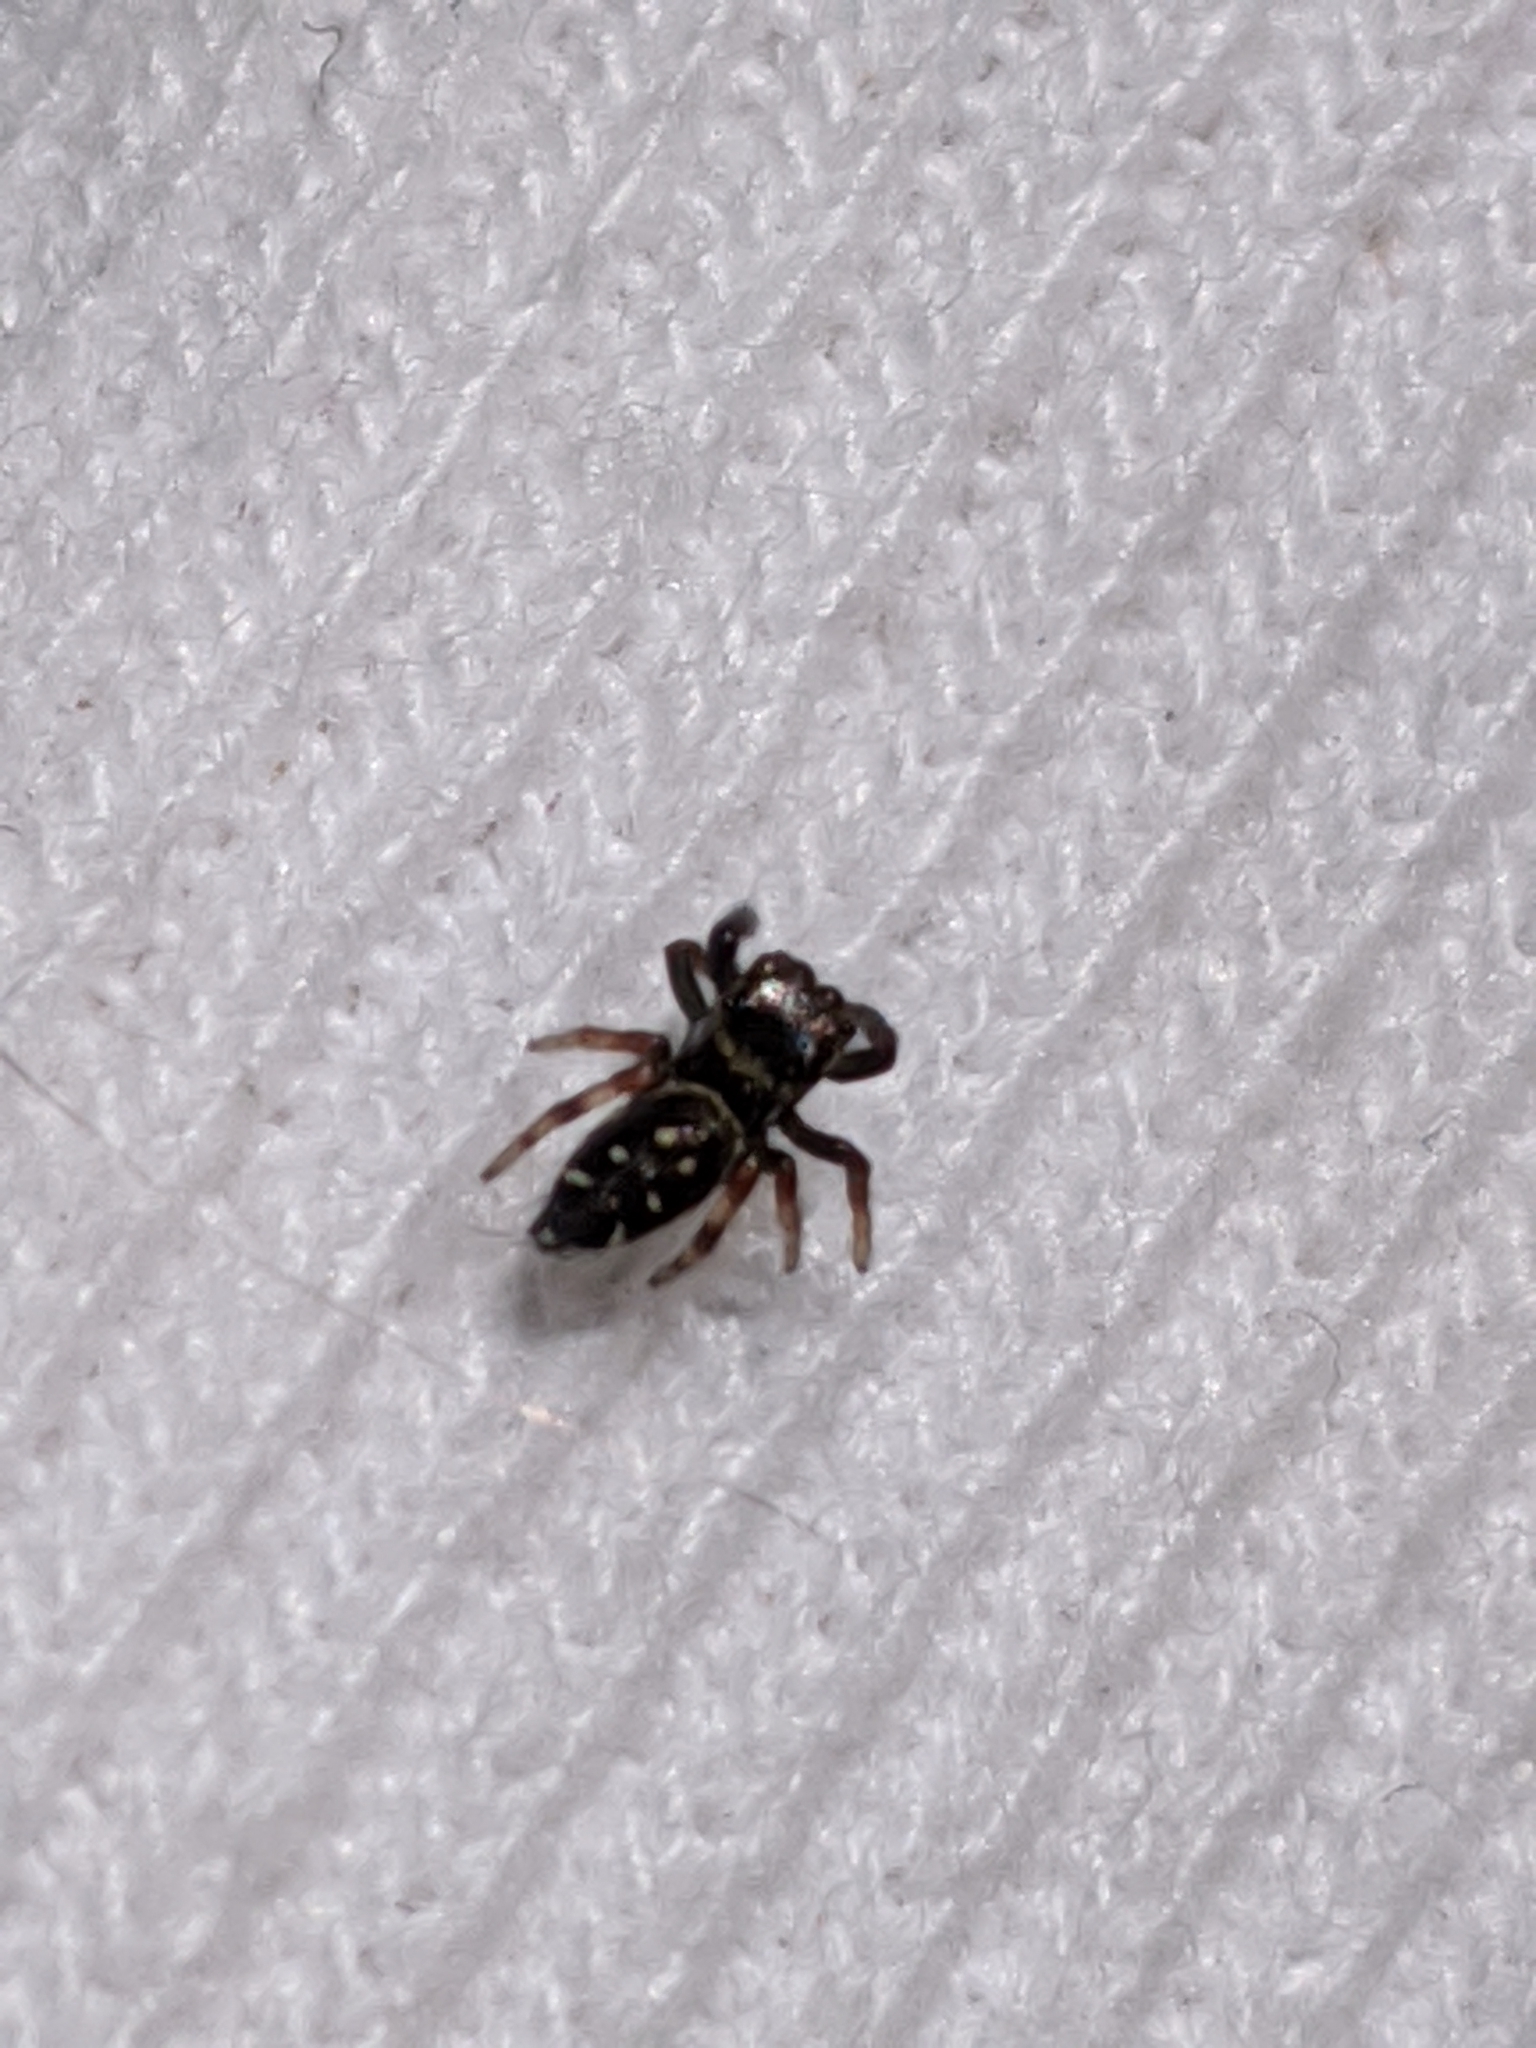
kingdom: Animalia
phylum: Arthropoda
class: Arachnida
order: Araneae
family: Salticidae
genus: Paraphidippus
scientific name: Paraphidippus aurantius
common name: Jumping spiders
